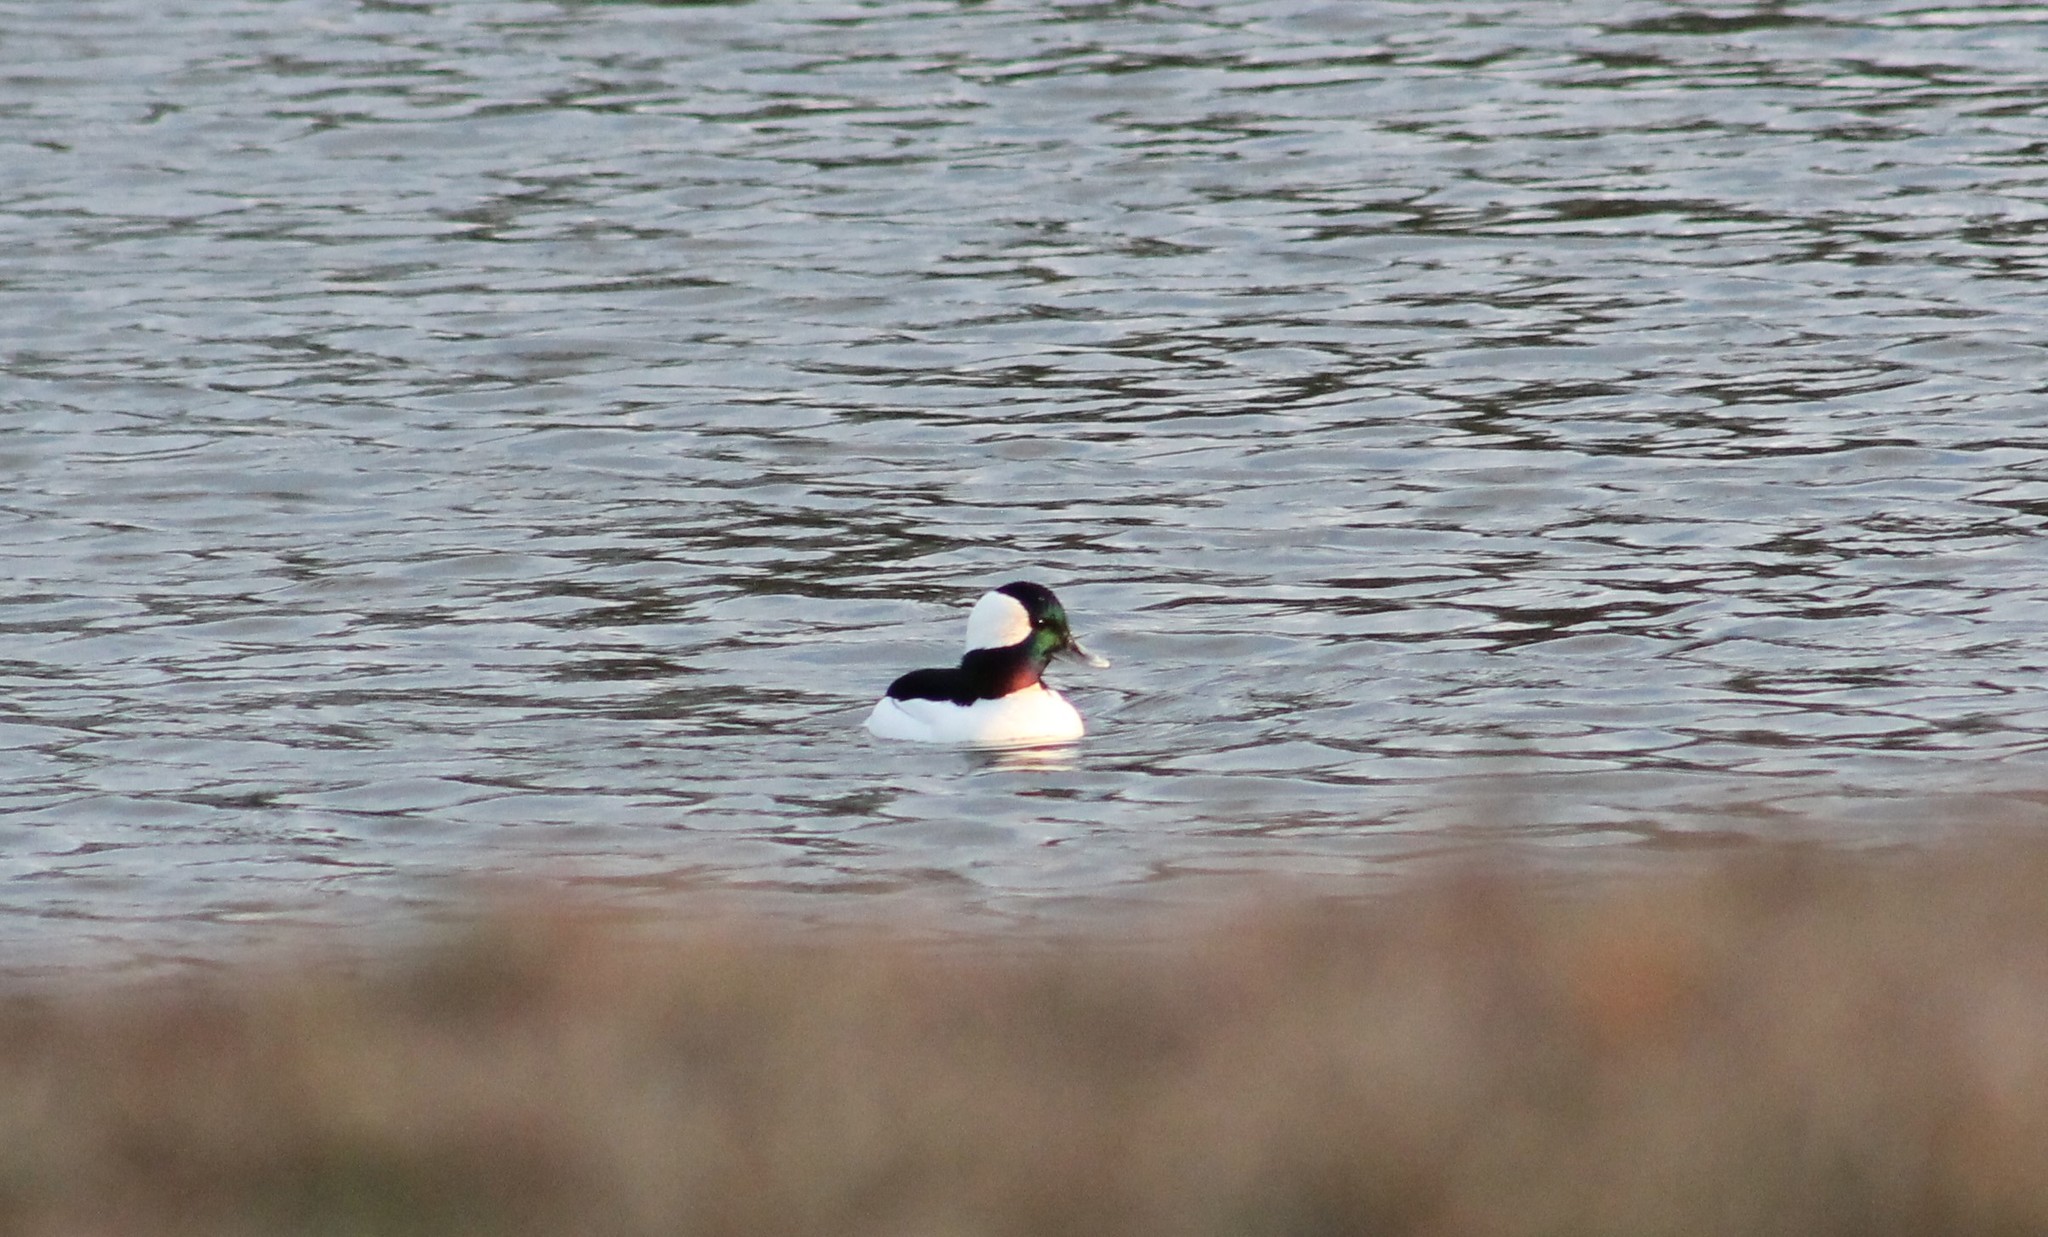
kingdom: Animalia
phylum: Chordata
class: Aves
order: Anseriformes
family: Anatidae
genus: Bucephala
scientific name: Bucephala albeola
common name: Bufflehead
